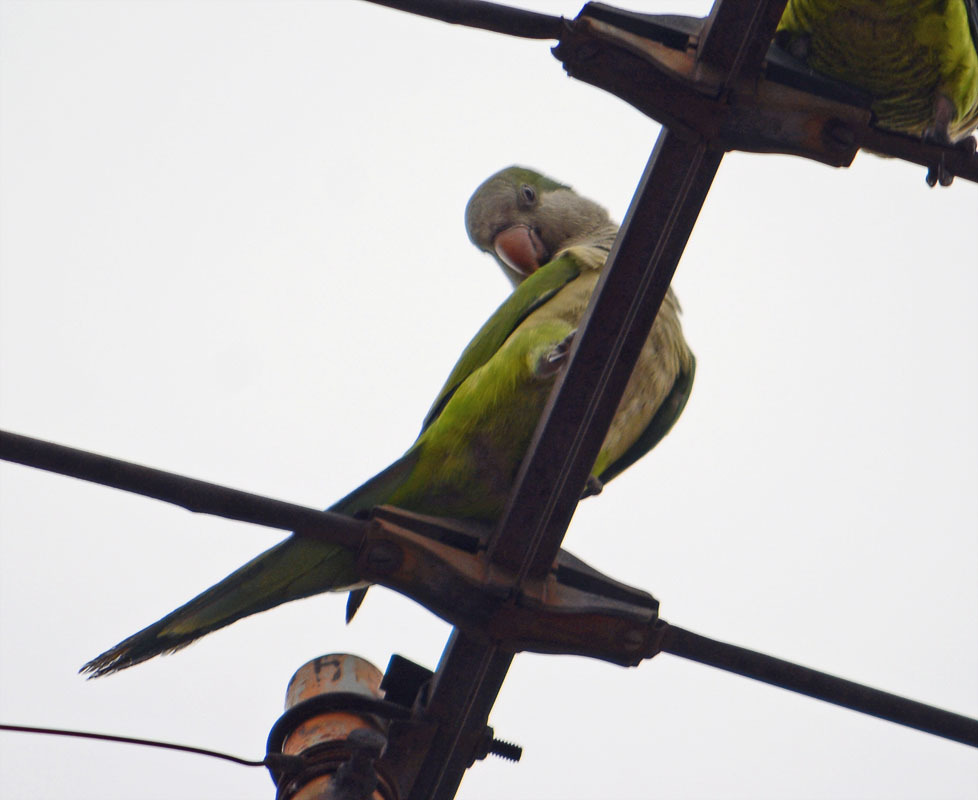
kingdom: Animalia
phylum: Chordata
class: Aves
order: Psittaciformes
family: Psittacidae
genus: Myiopsitta
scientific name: Myiopsitta monachus
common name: Monk parakeet
